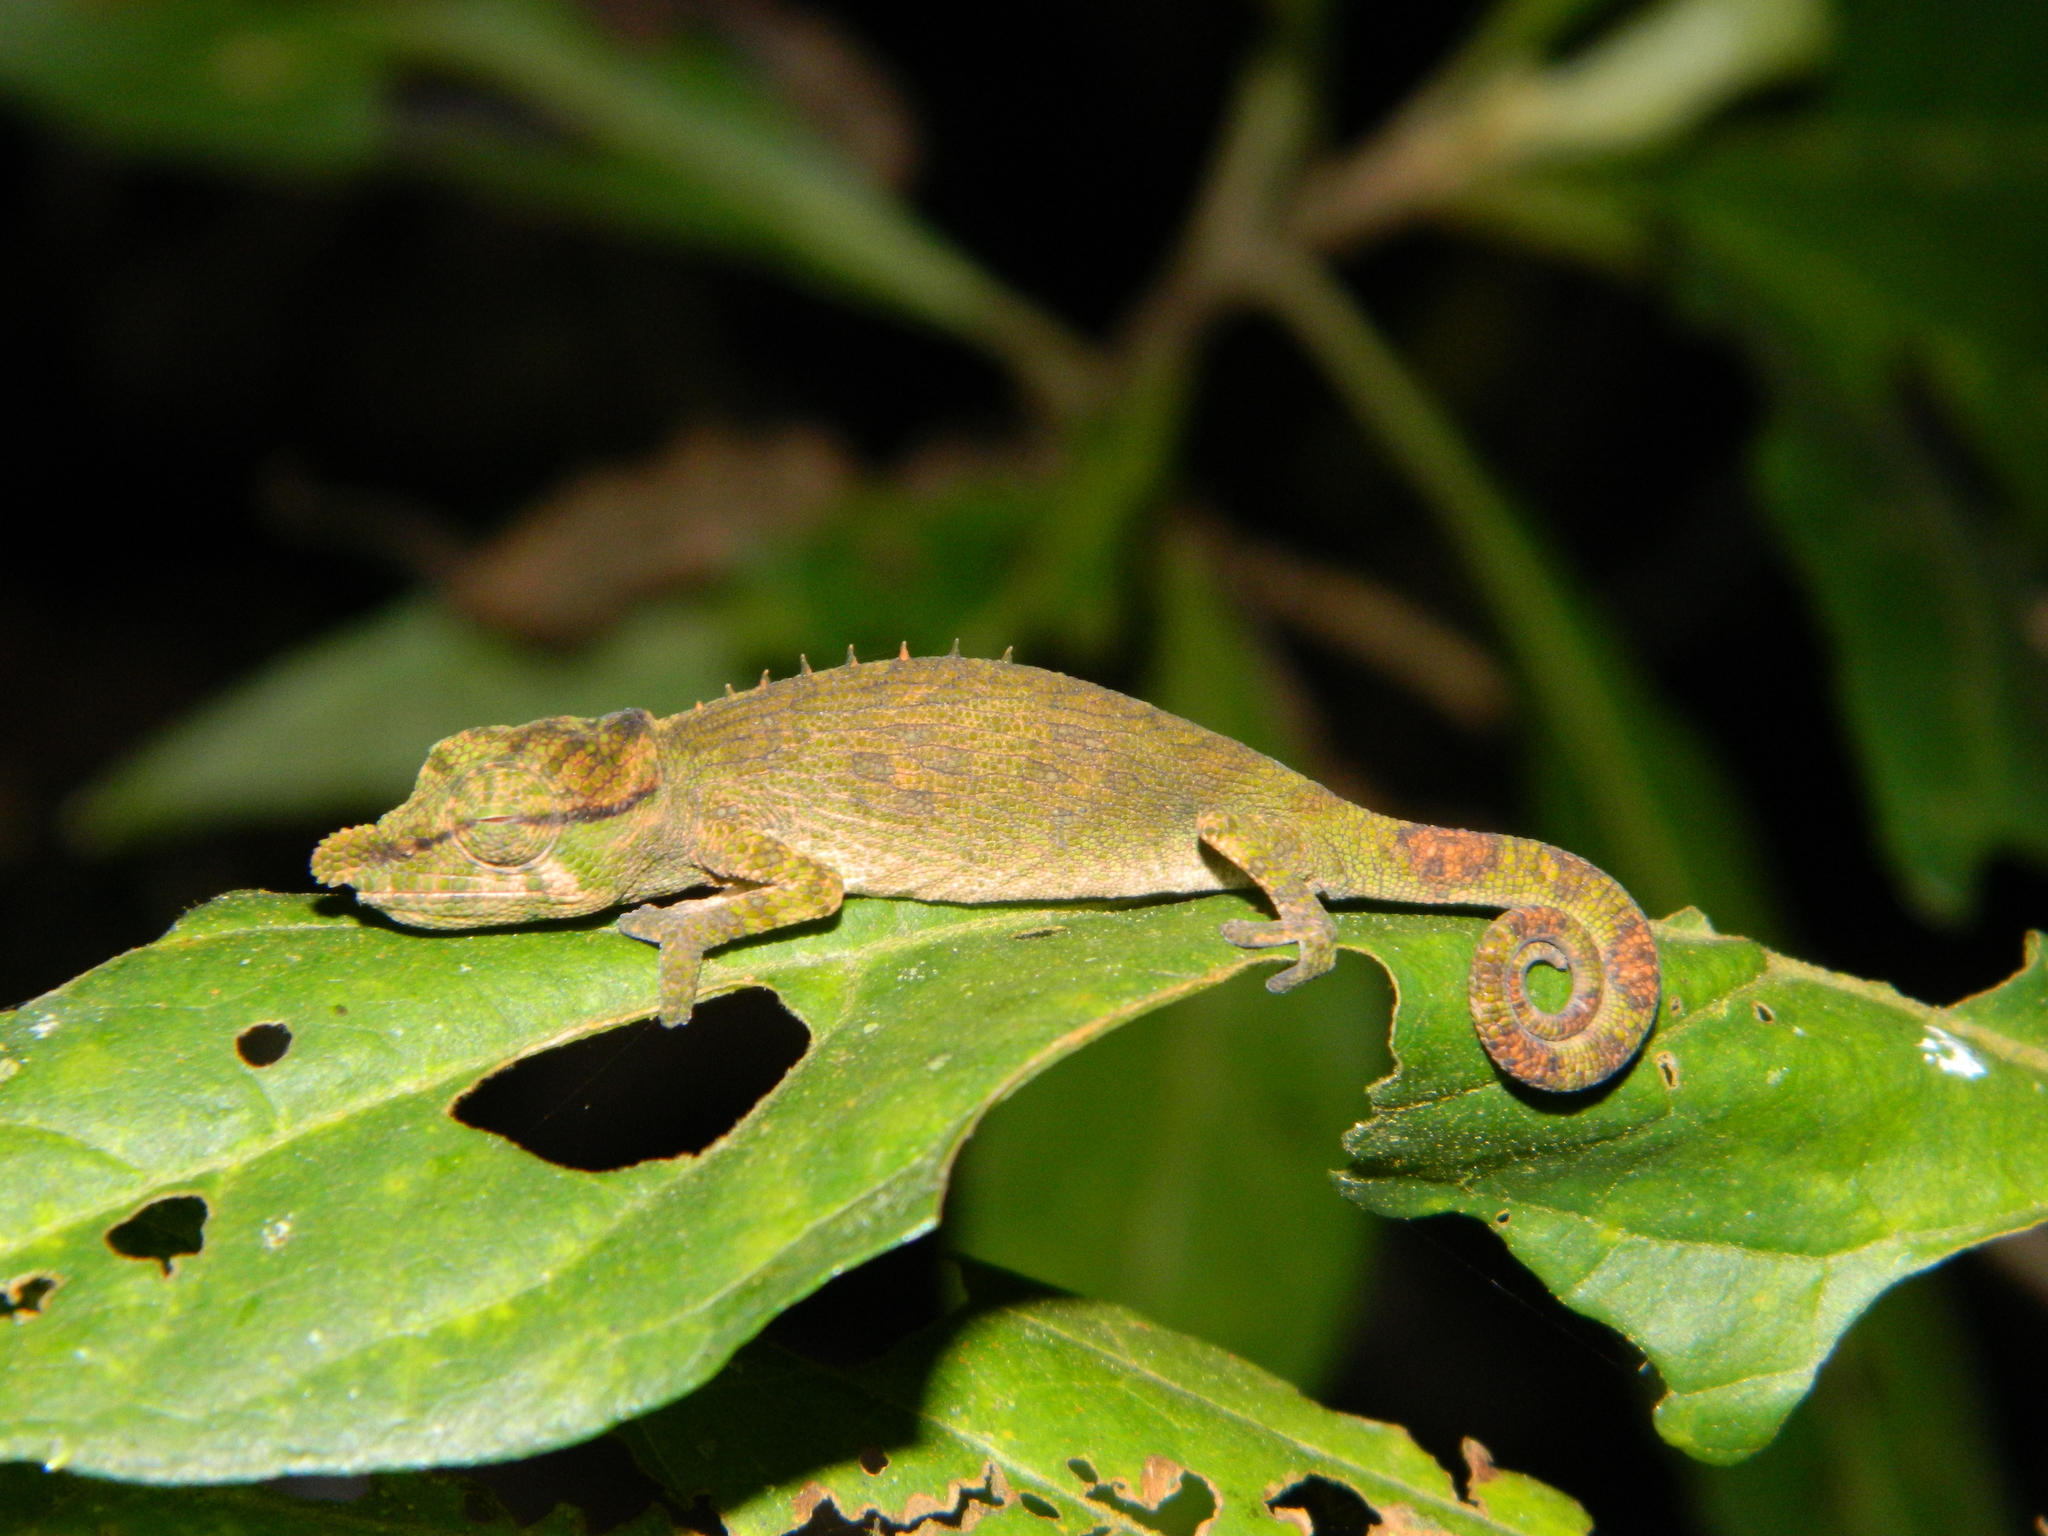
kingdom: Animalia
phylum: Chordata
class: Squamata
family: Chamaeleonidae
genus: Calumma
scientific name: Calumma tjiasmantoi
